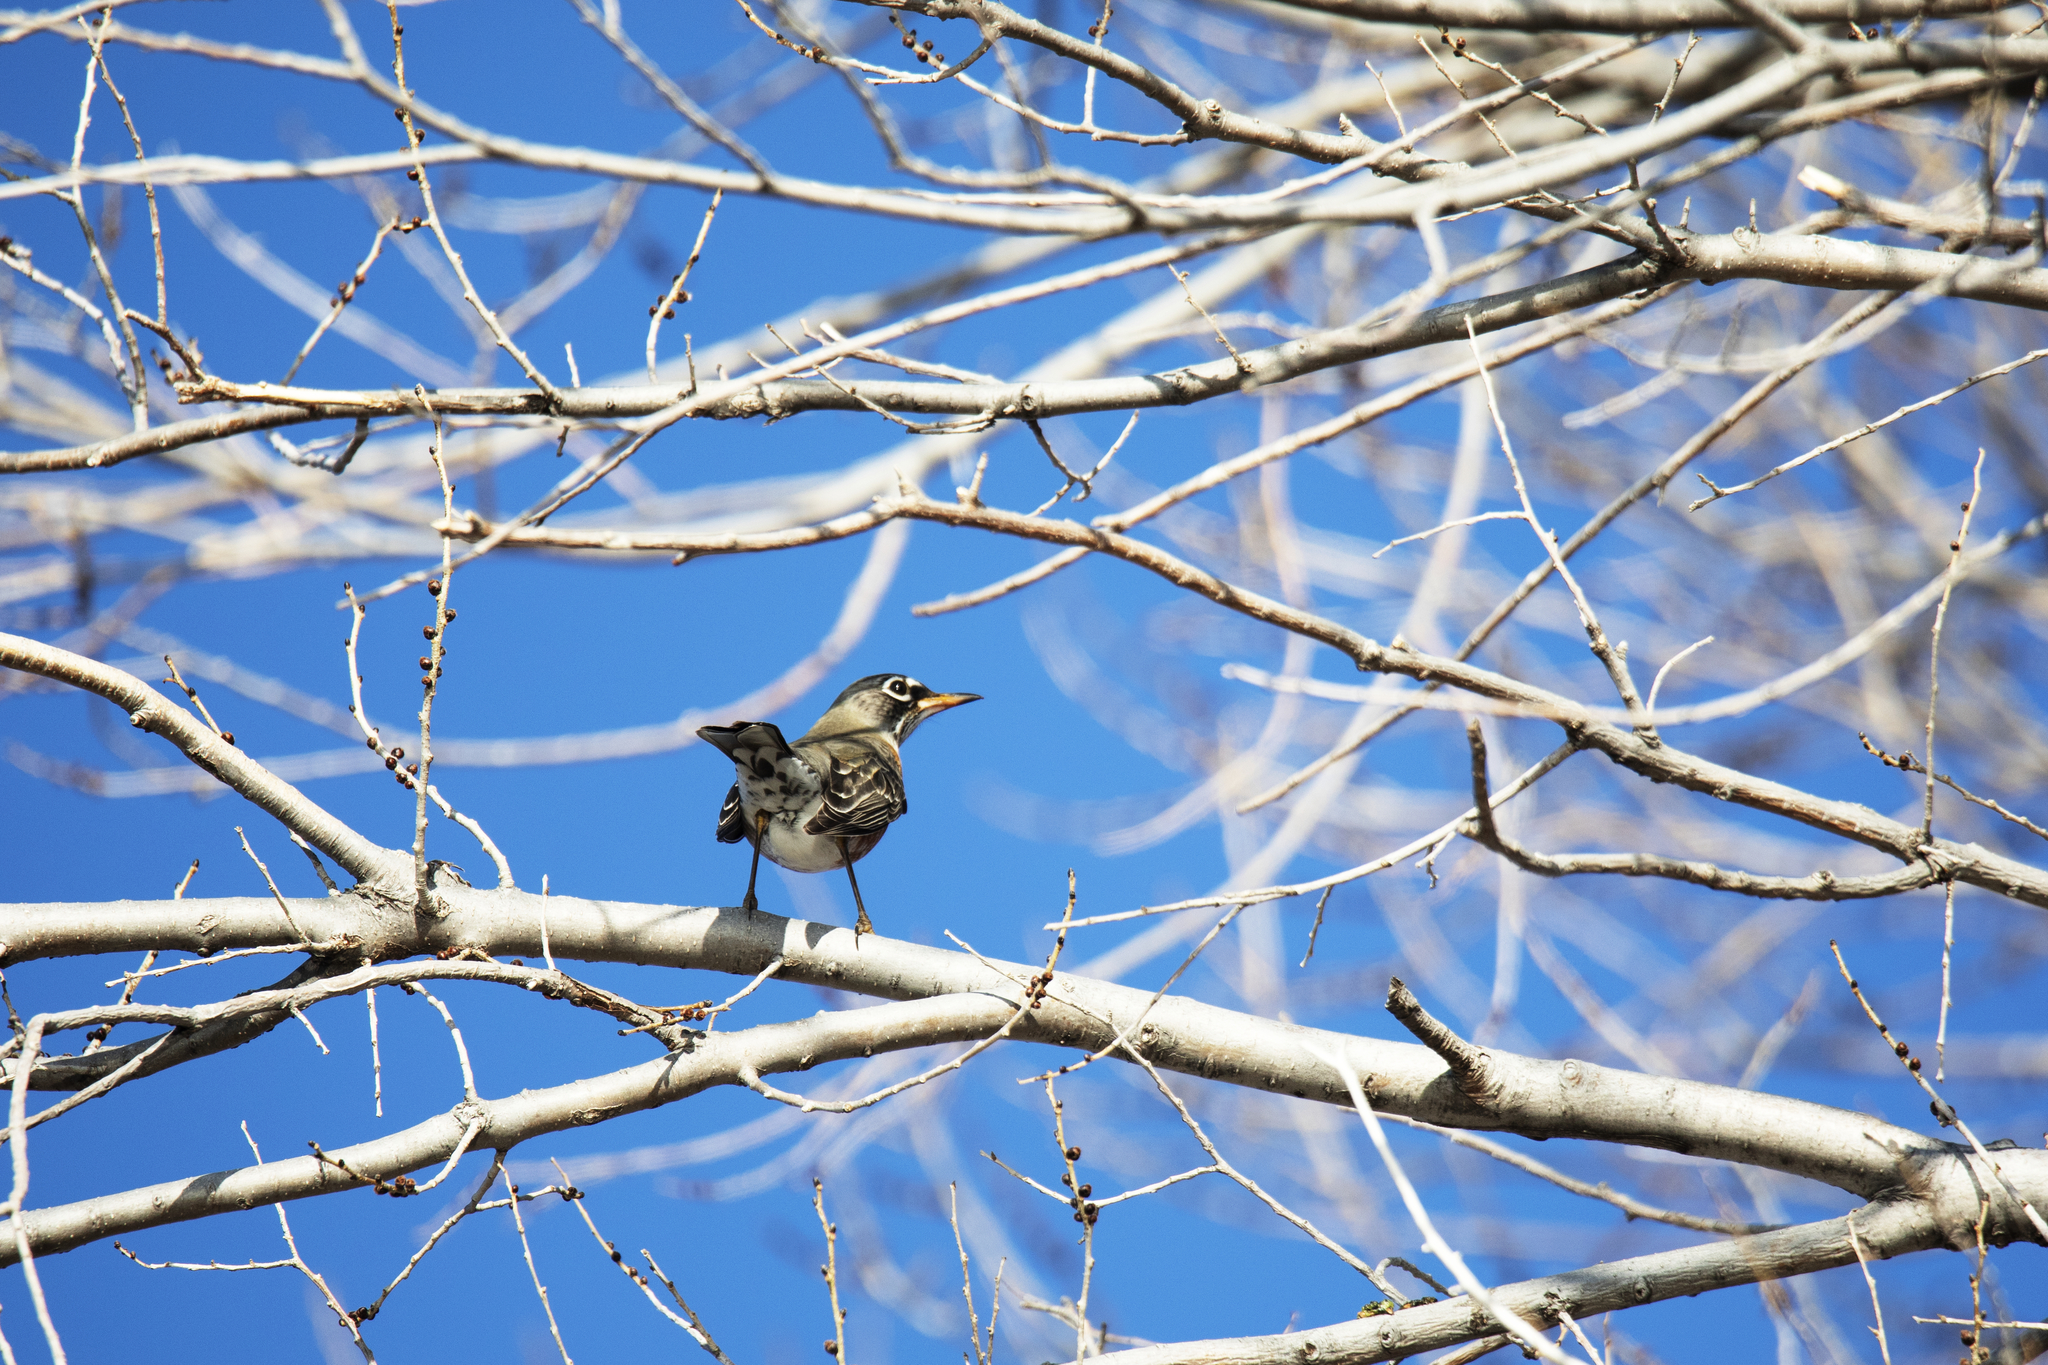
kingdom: Animalia
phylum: Chordata
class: Aves
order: Passeriformes
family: Turdidae
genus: Turdus
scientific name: Turdus migratorius
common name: American robin
